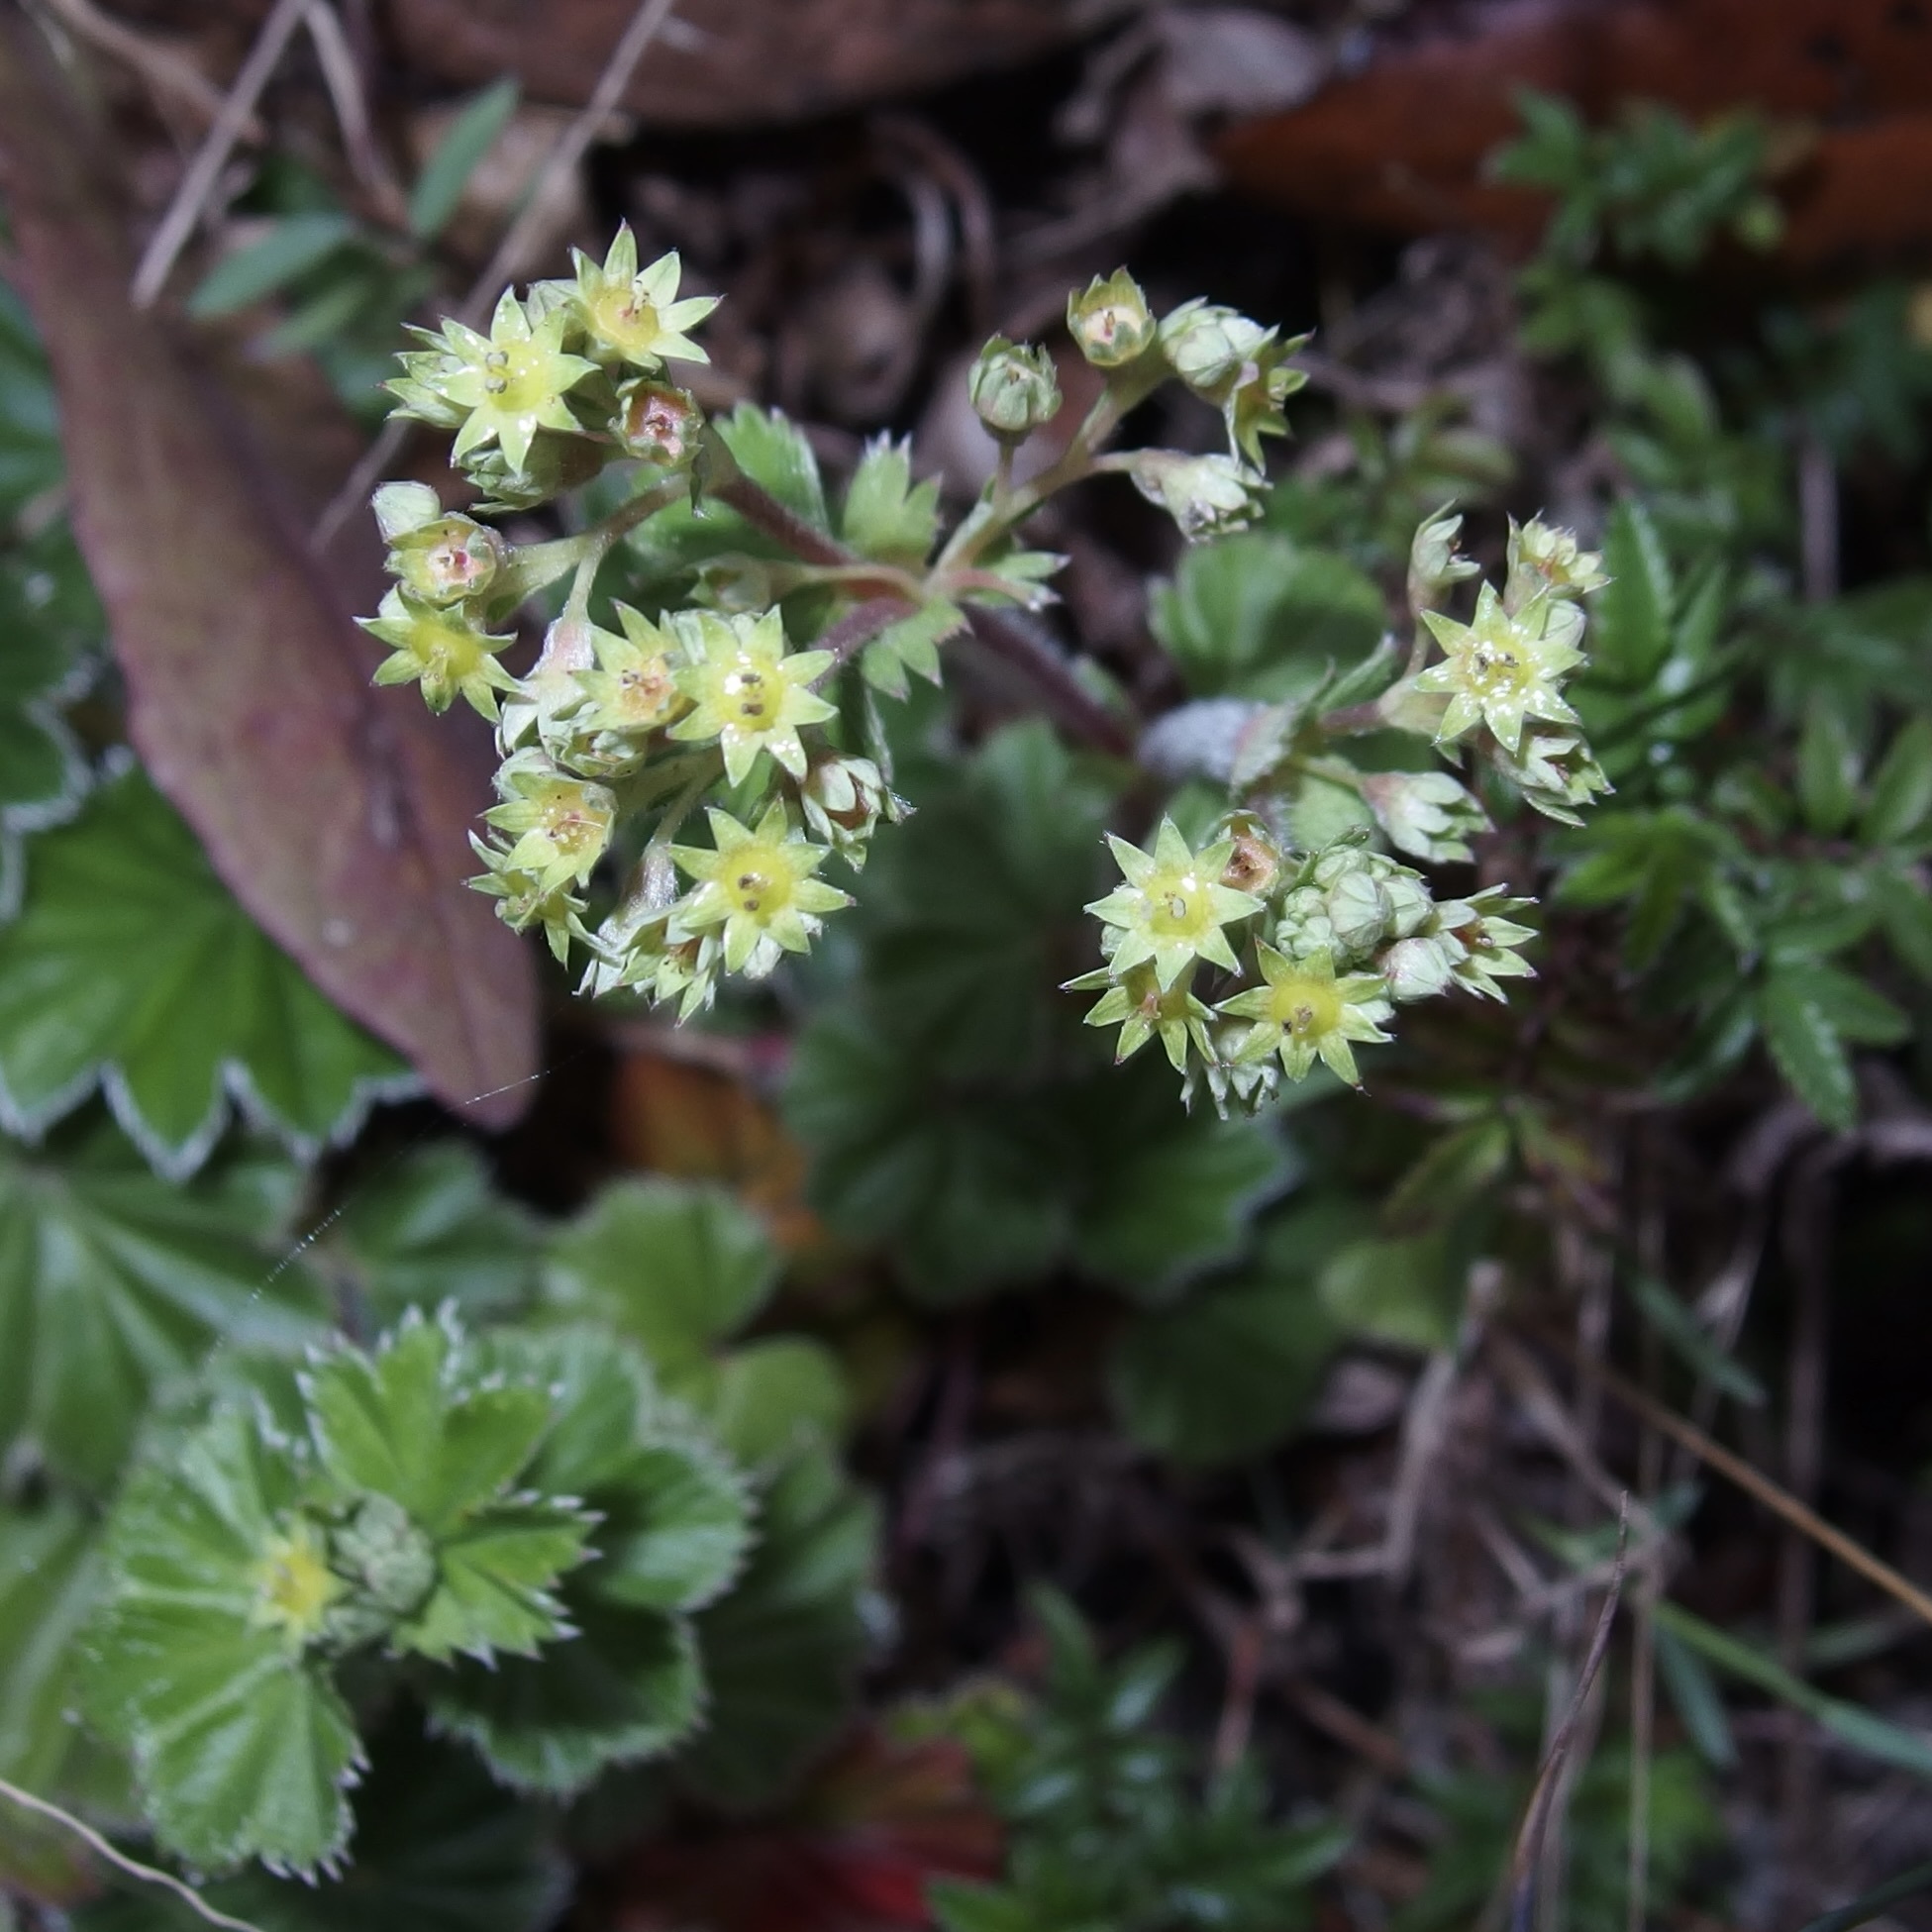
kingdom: Plantae
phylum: Tracheophyta
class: Magnoliopsida
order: Rosales
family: Rosaceae
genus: Lachemilla
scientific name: Lachemilla pectinata
